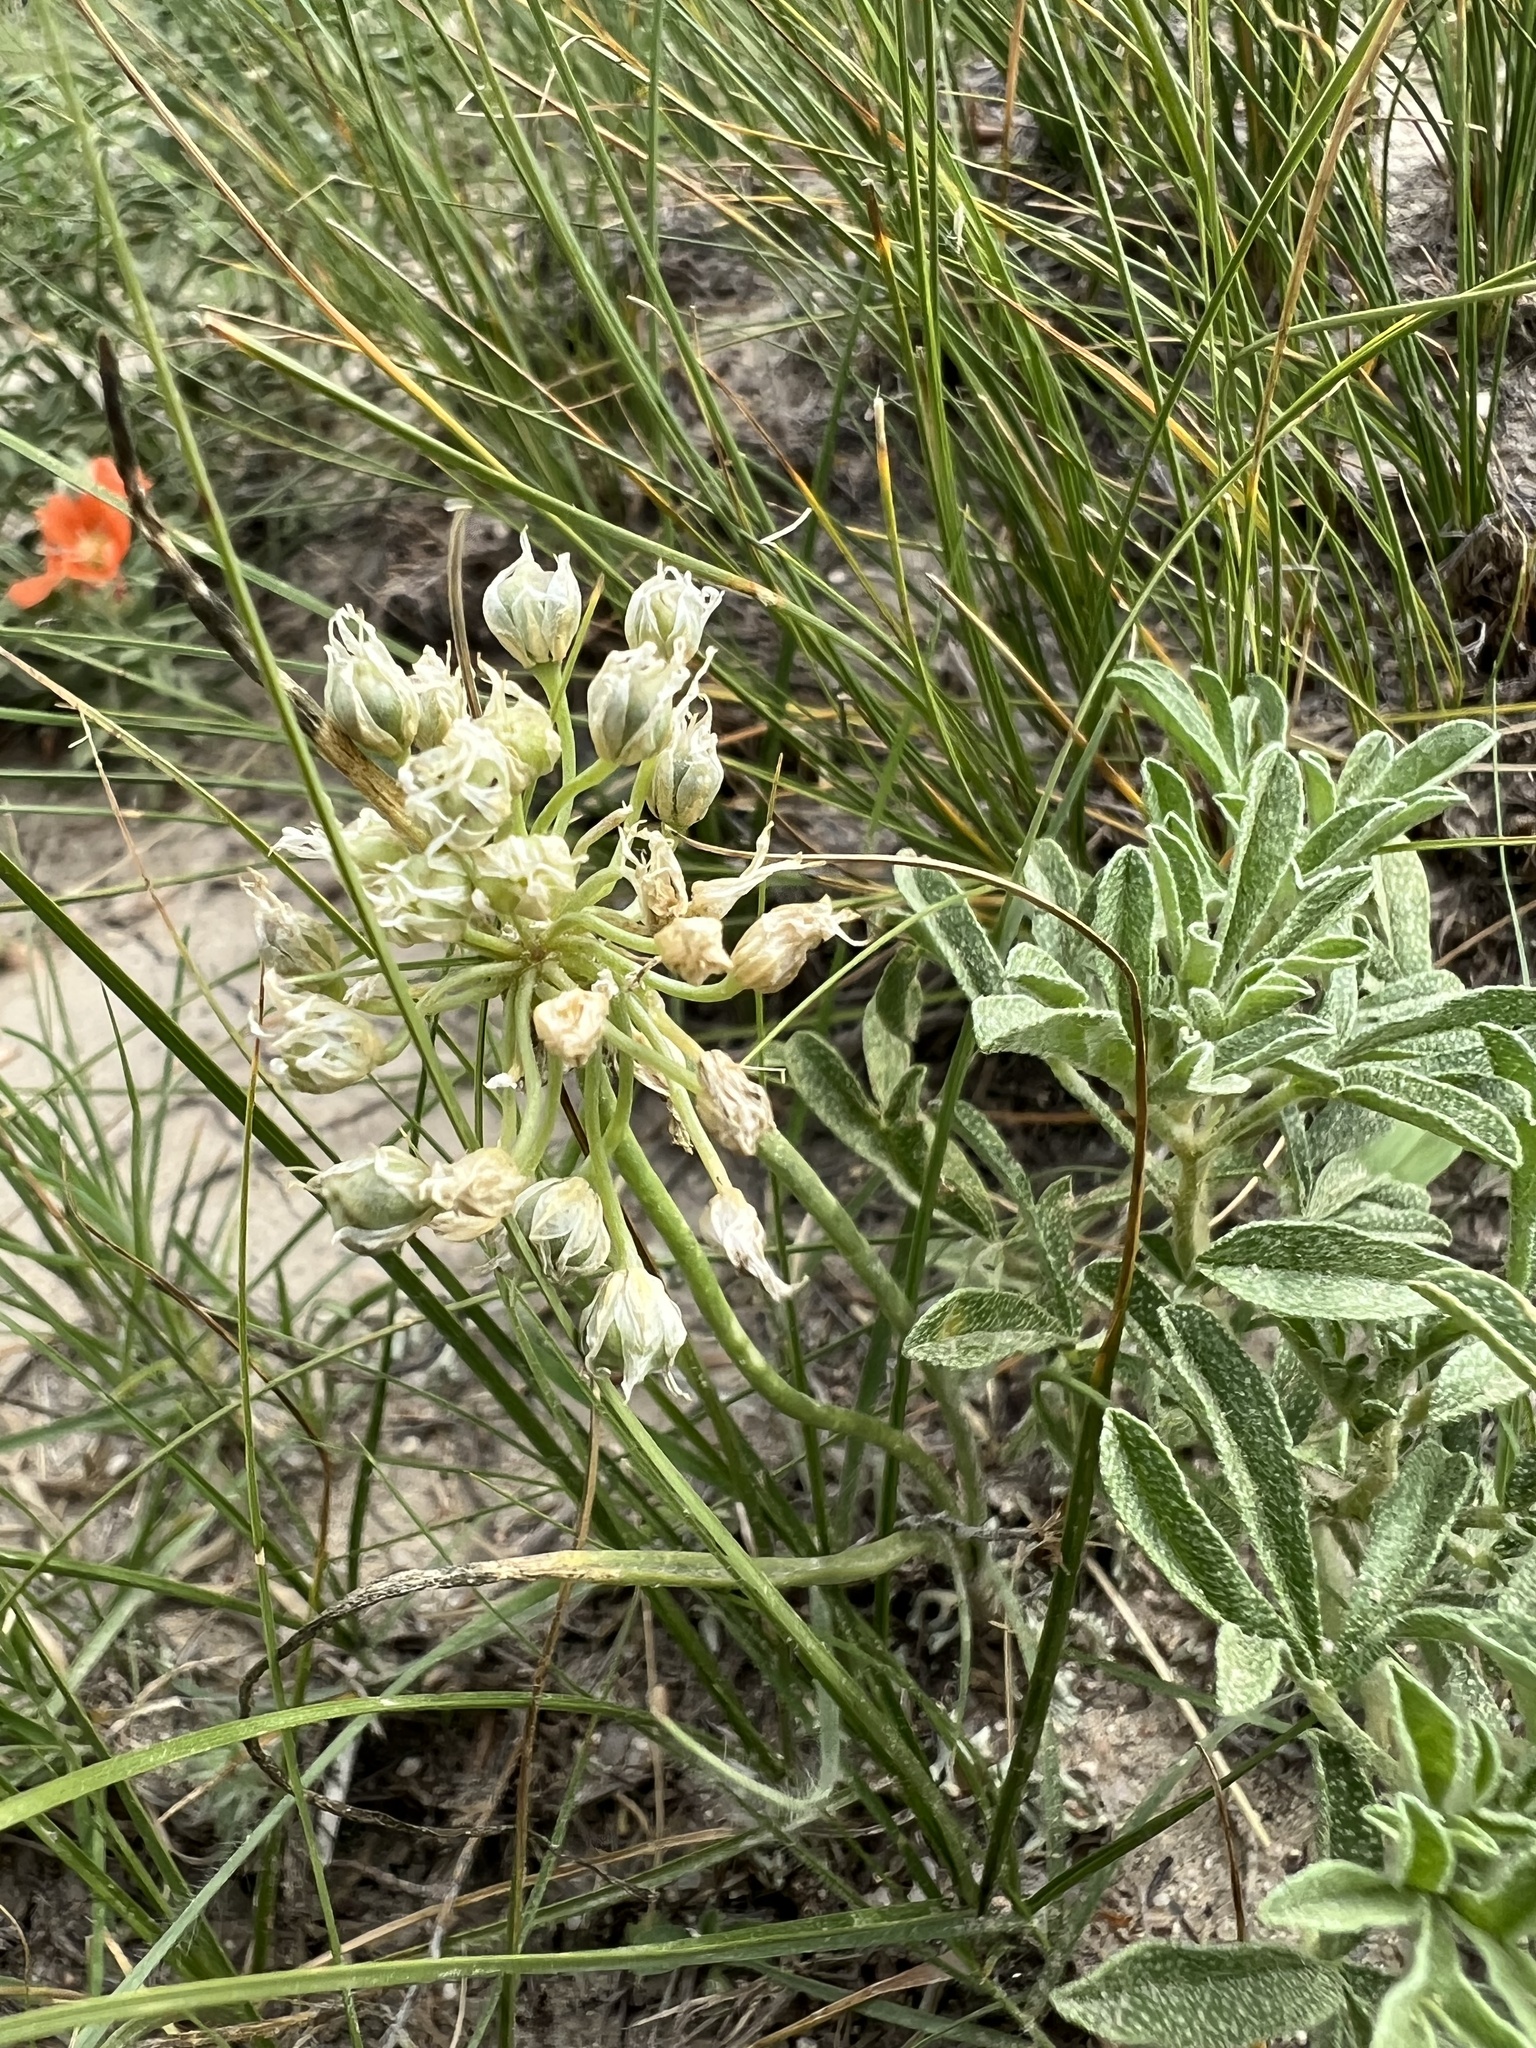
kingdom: Plantae
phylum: Tracheophyta
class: Liliopsida
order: Asparagales
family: Amaryllidaceae
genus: Allium
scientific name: Allium textile
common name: Prairie onion
